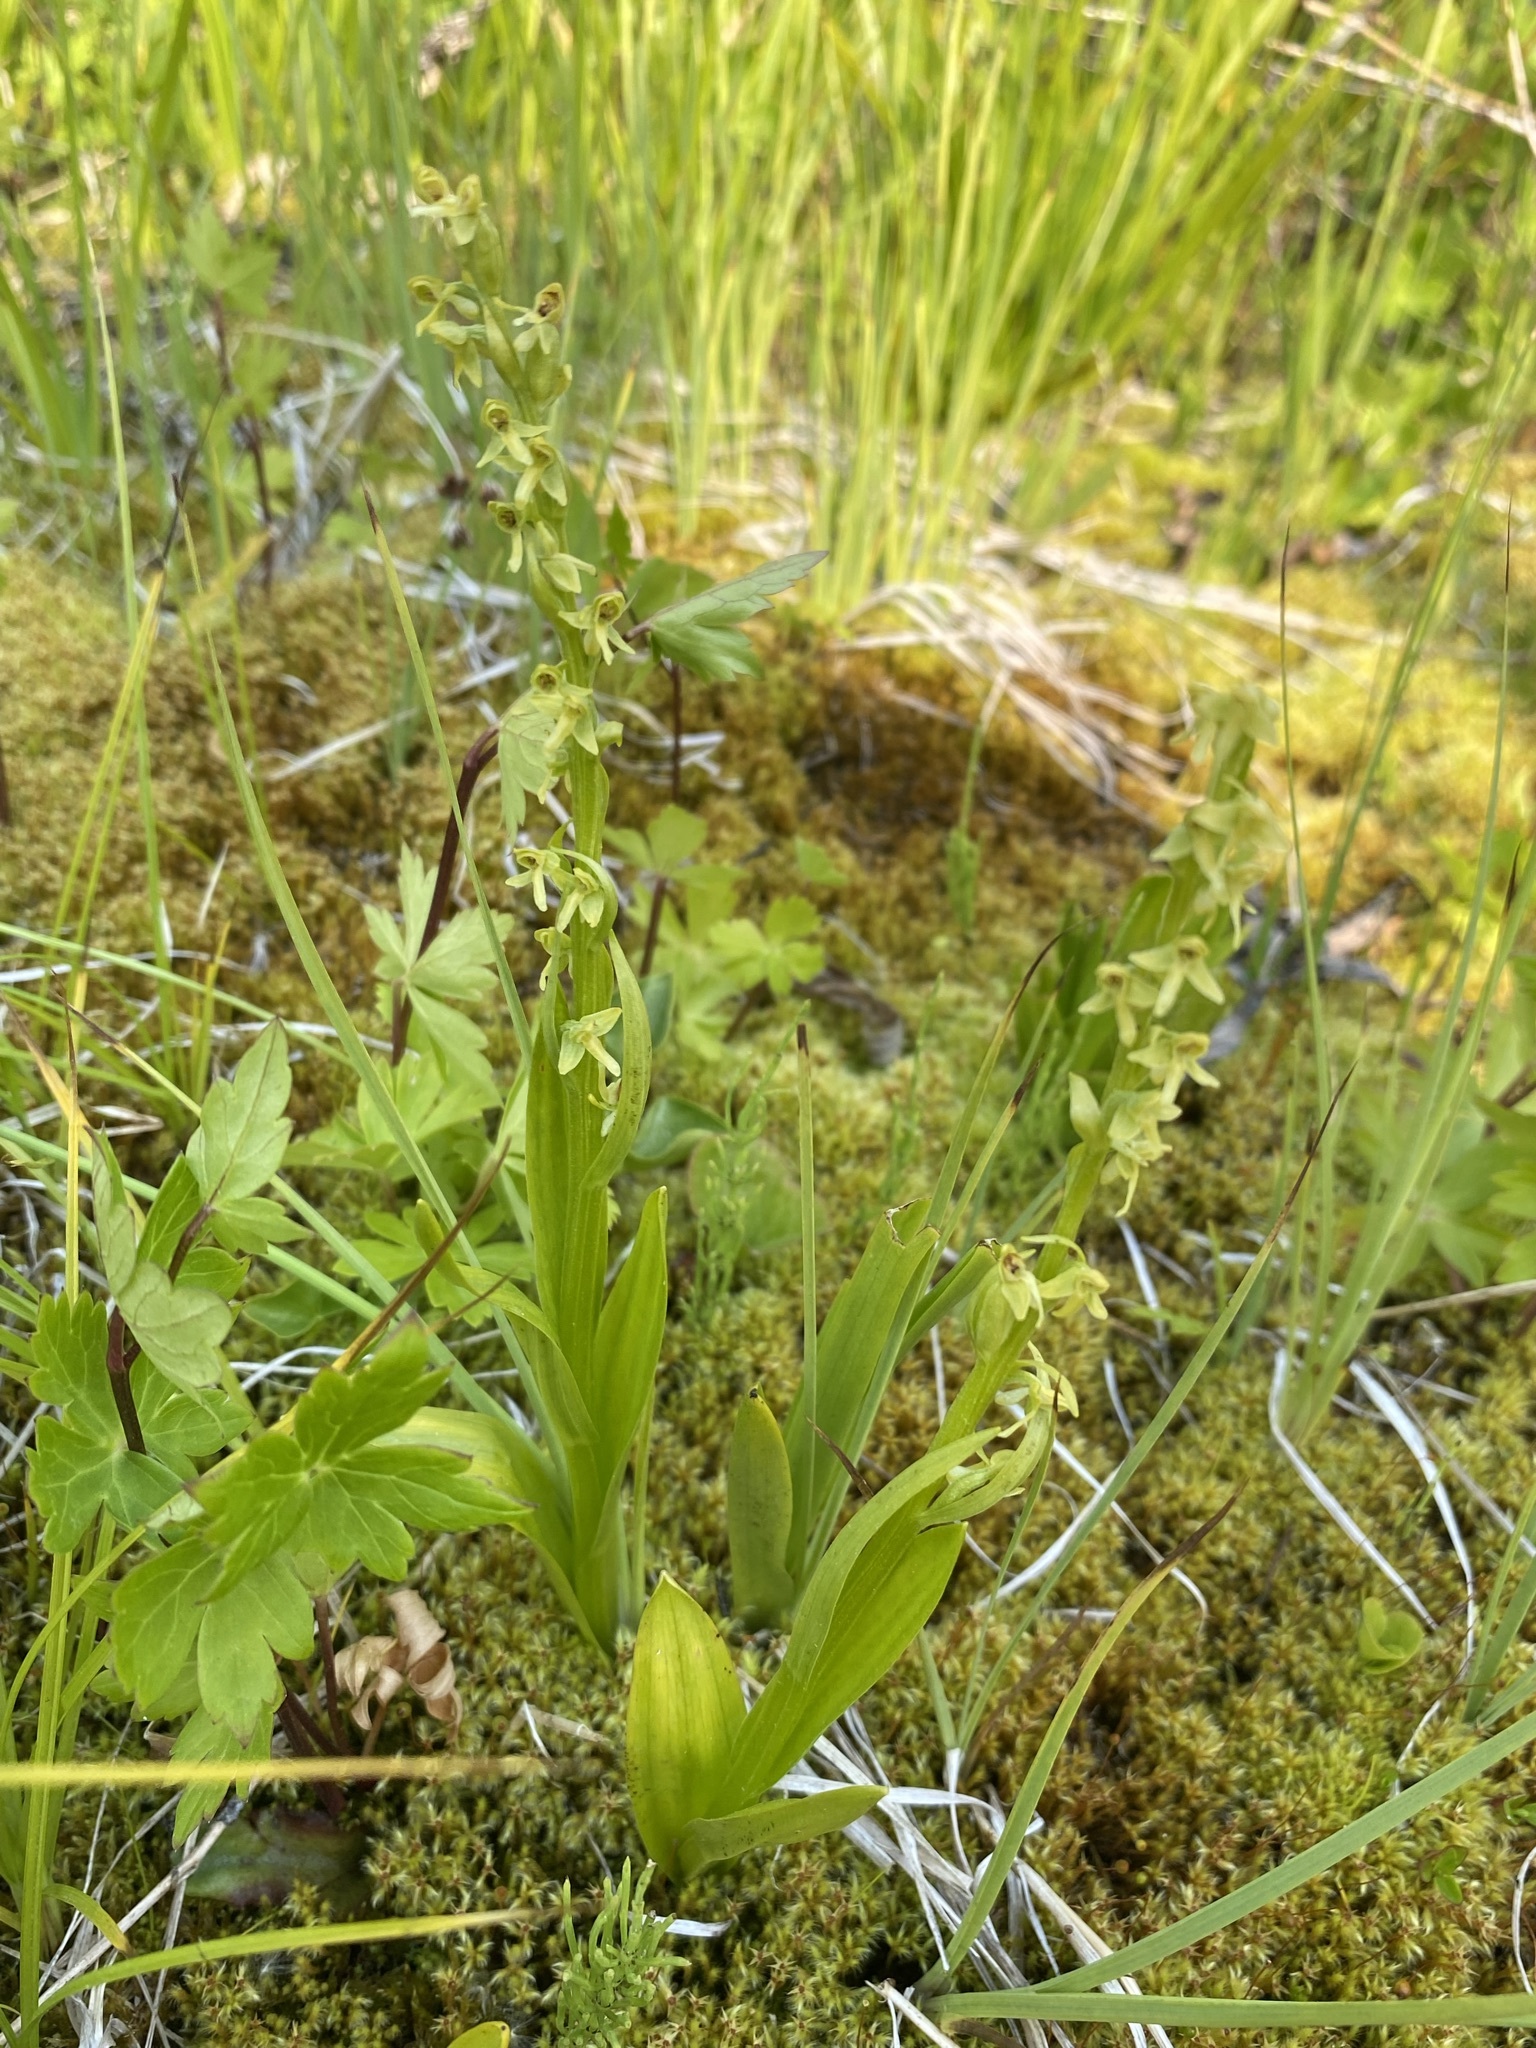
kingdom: Plantae
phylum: Tracheophyta
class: Liliopsida
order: Asparagales
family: Orchidaceae
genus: Platanthera
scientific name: Platanthera stricta
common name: Slender bog orchid
